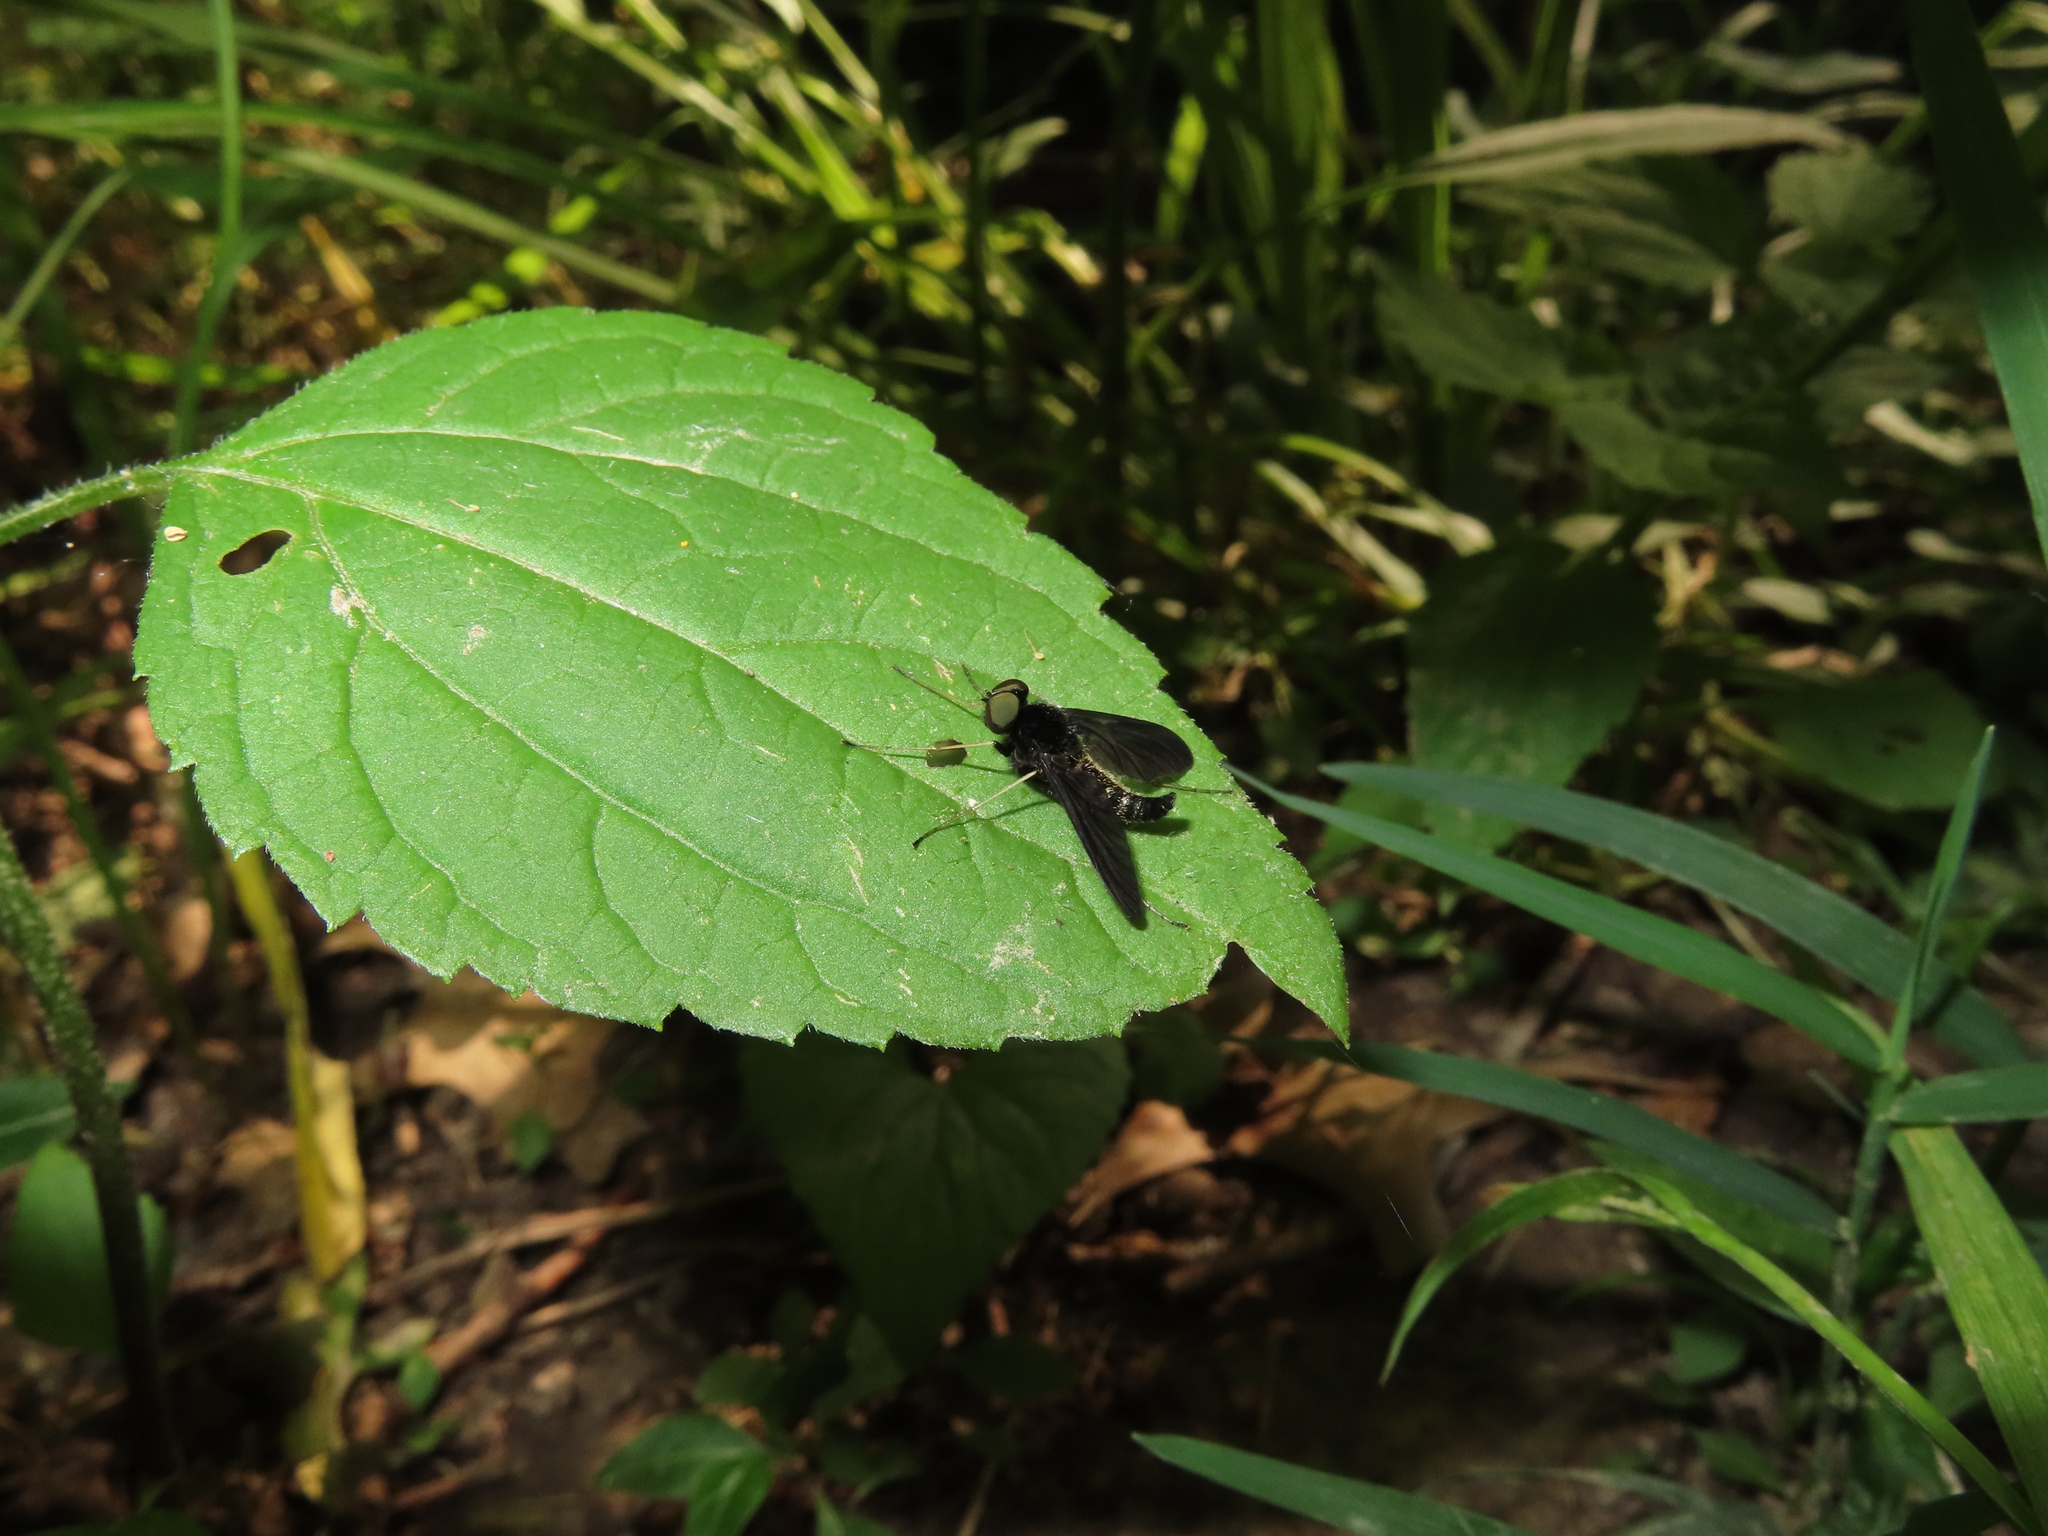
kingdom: Animalia
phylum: Arthropoda
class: Insecta
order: Diptera
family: Rhagionidae
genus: Chrysopilus
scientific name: Chrysopilus connexus
